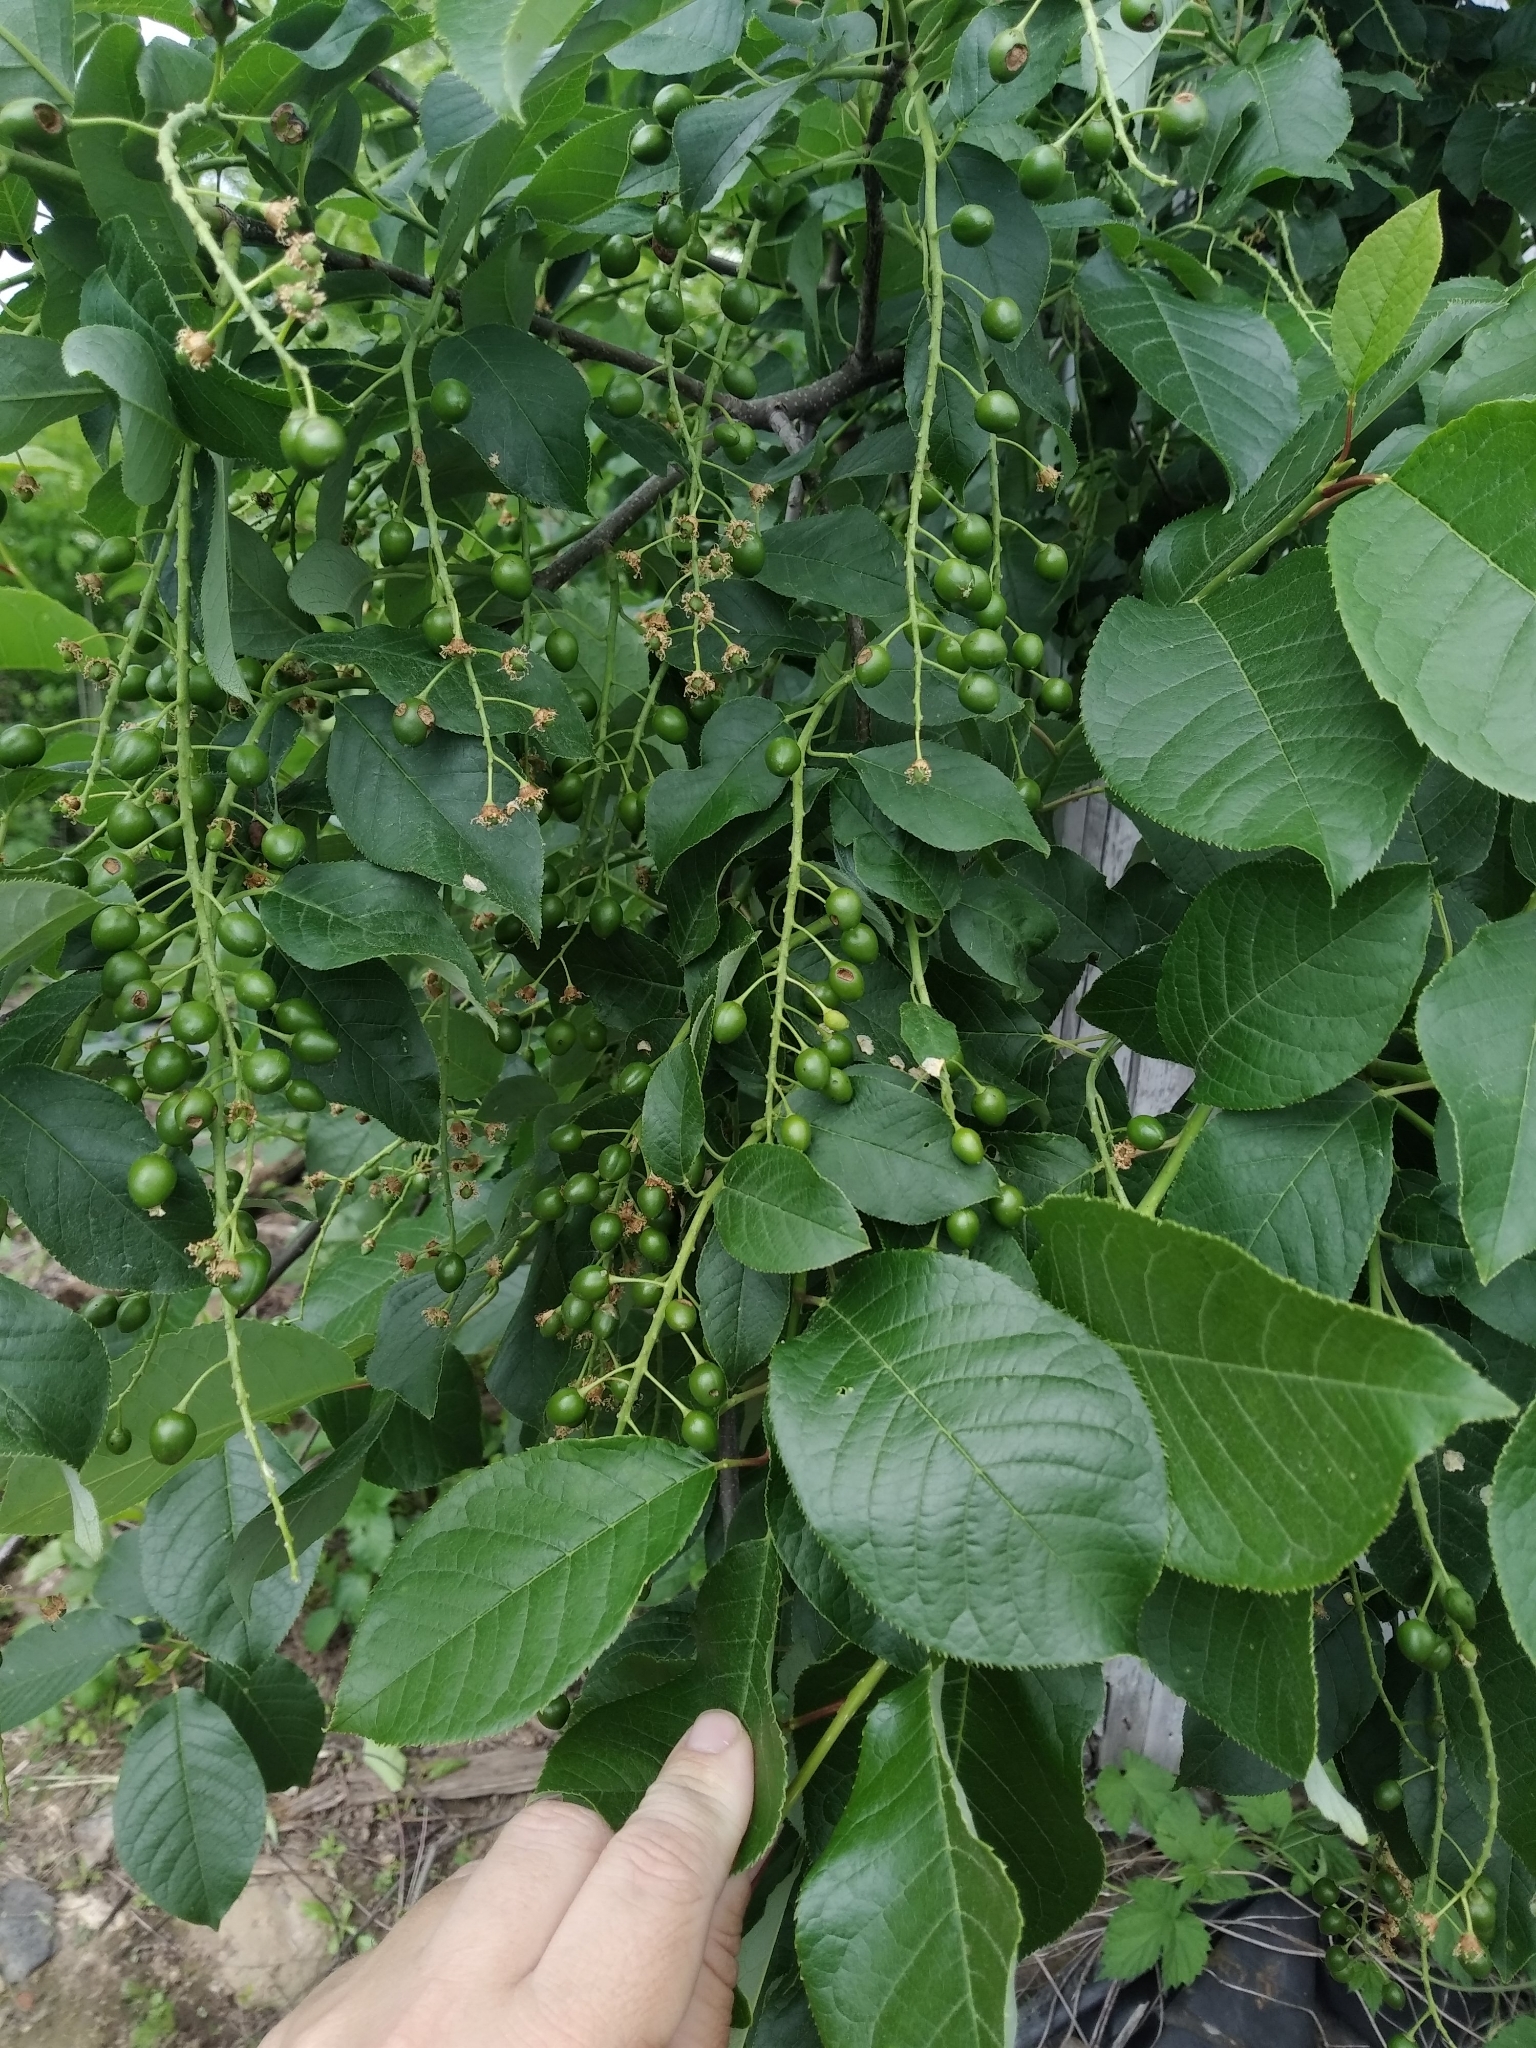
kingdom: Plantae
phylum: Tracheophyta
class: Magnoliopsida
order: Rosales
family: Rosaceae
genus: Prunus
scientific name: Prunus padus
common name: Bird cherry
